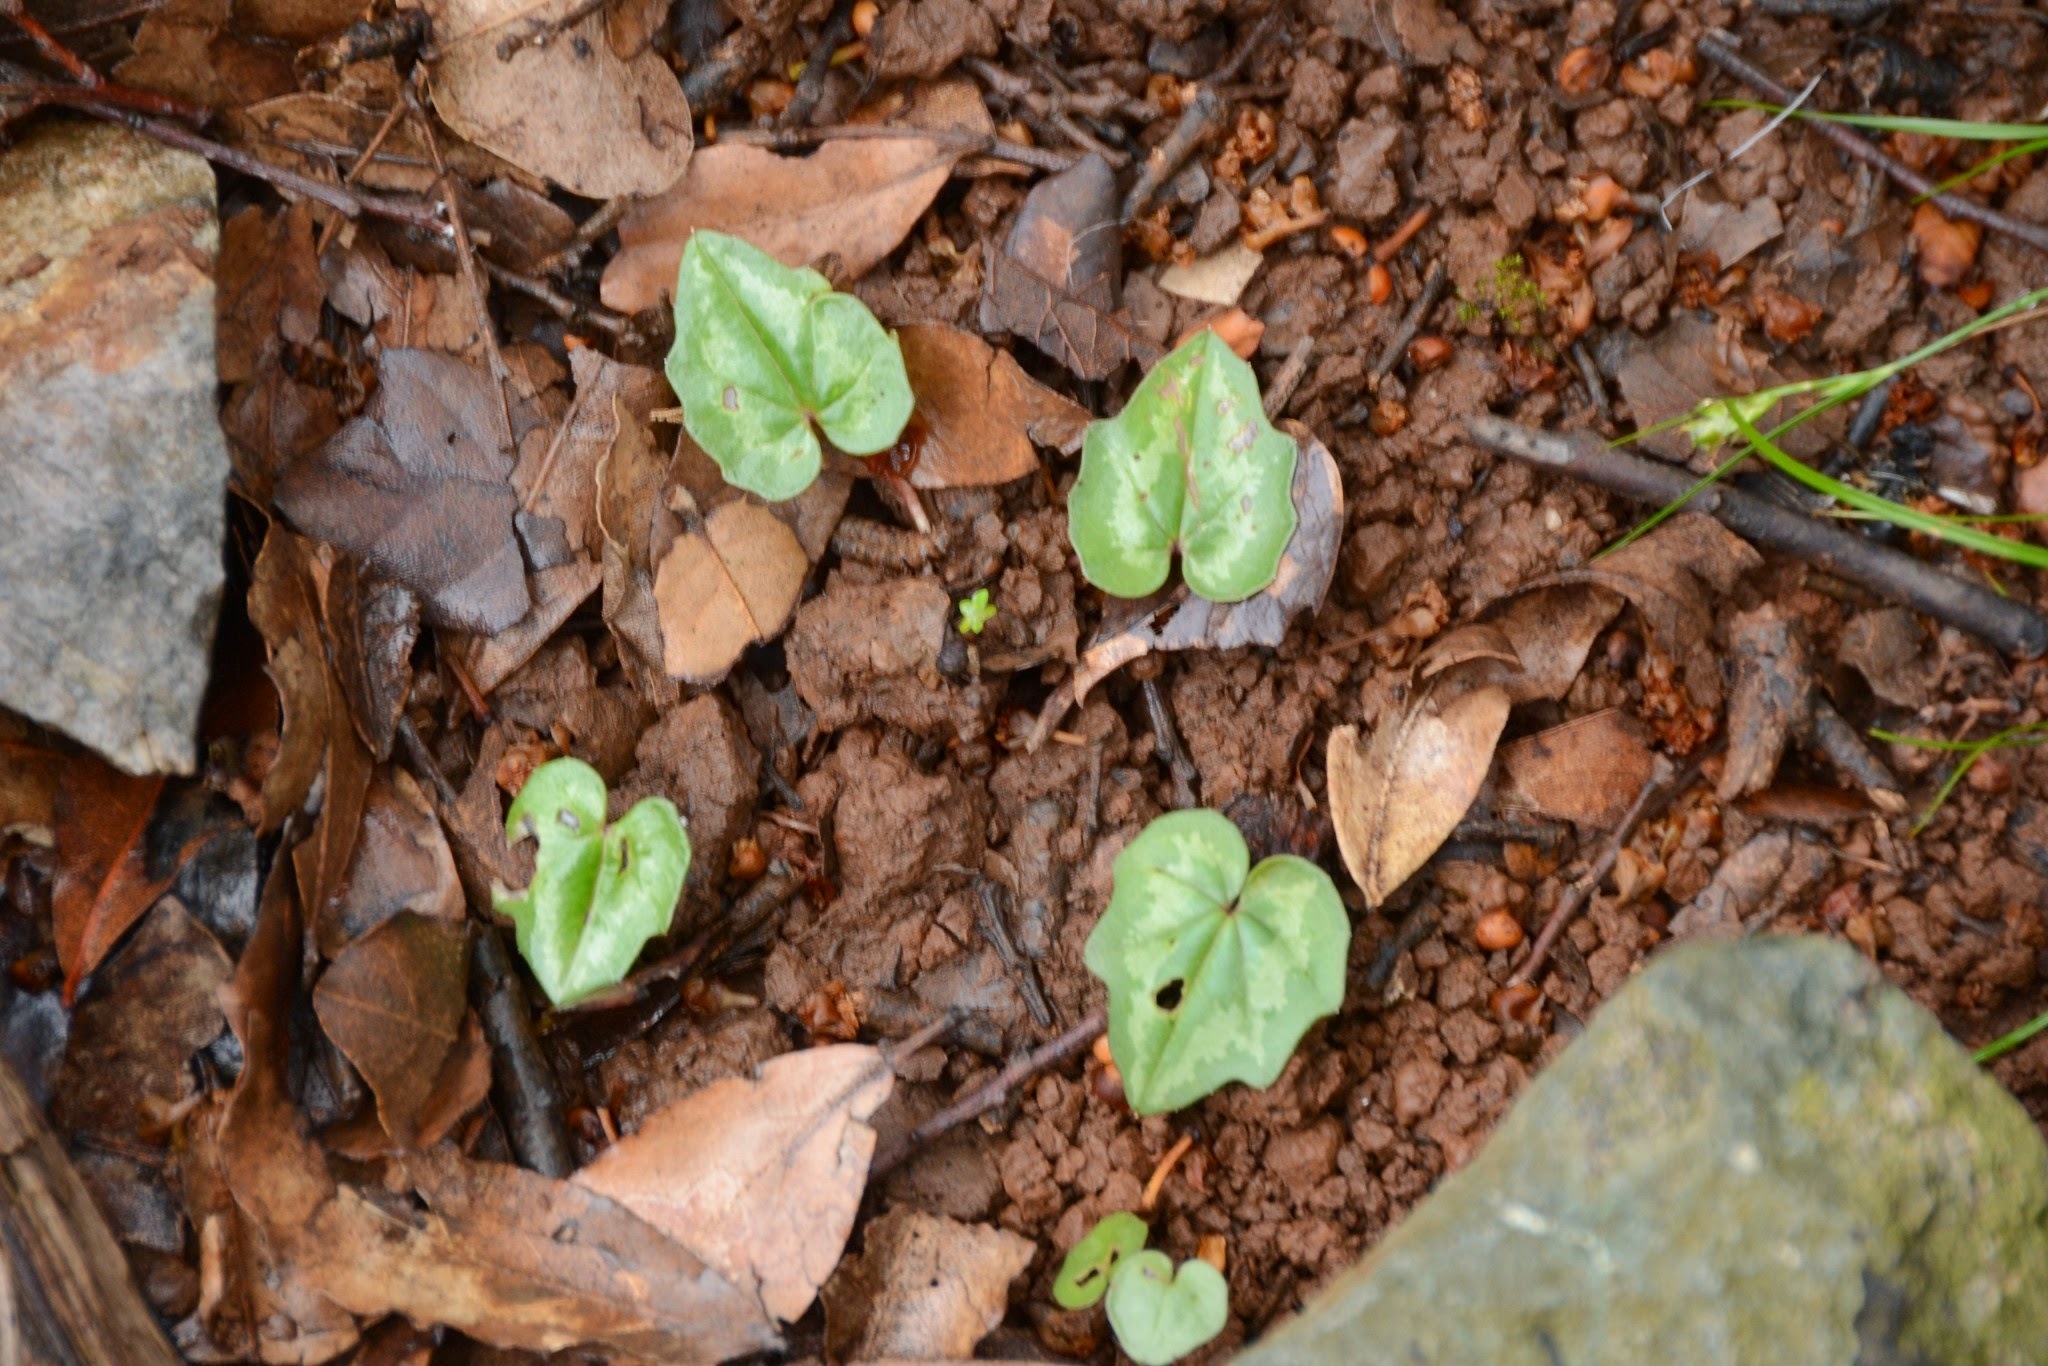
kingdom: Plantae
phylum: Tracheophyta
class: Magnoliopsida
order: Ericales
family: Primulaceae
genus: Cyclamen
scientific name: Cyclamen repandum
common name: Spring sowbread
